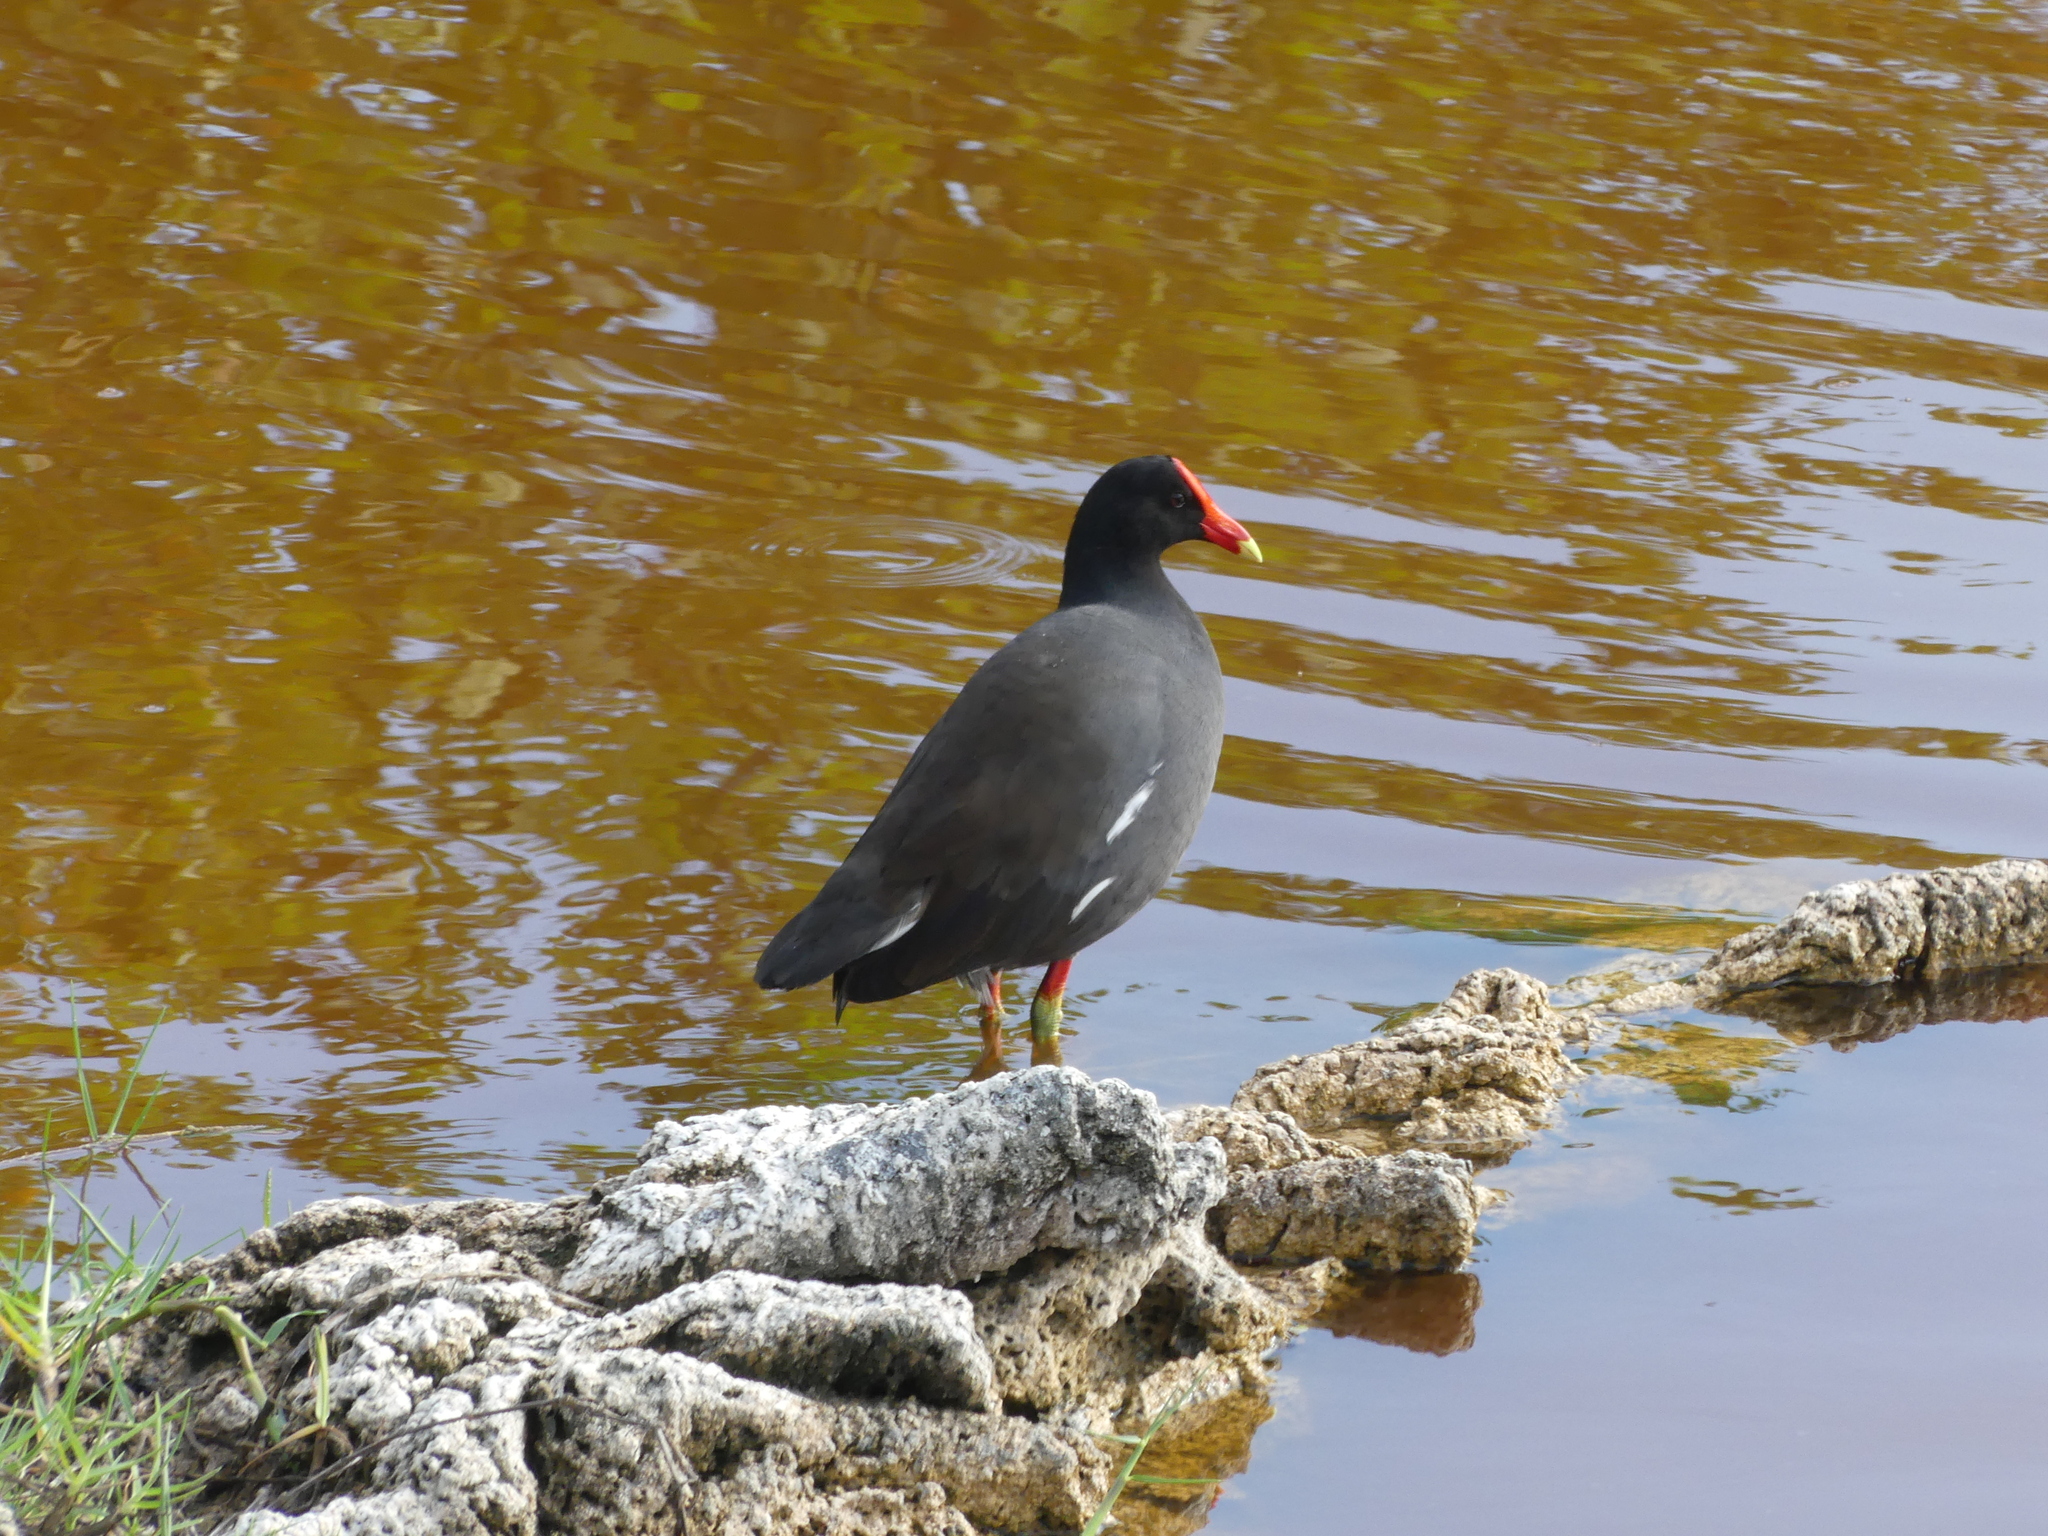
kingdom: Animalia
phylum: Chordata
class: Aves
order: Gruiformes
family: Rallidae
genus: Gallinula
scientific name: Gallinula chloropus
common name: Common moorhen
